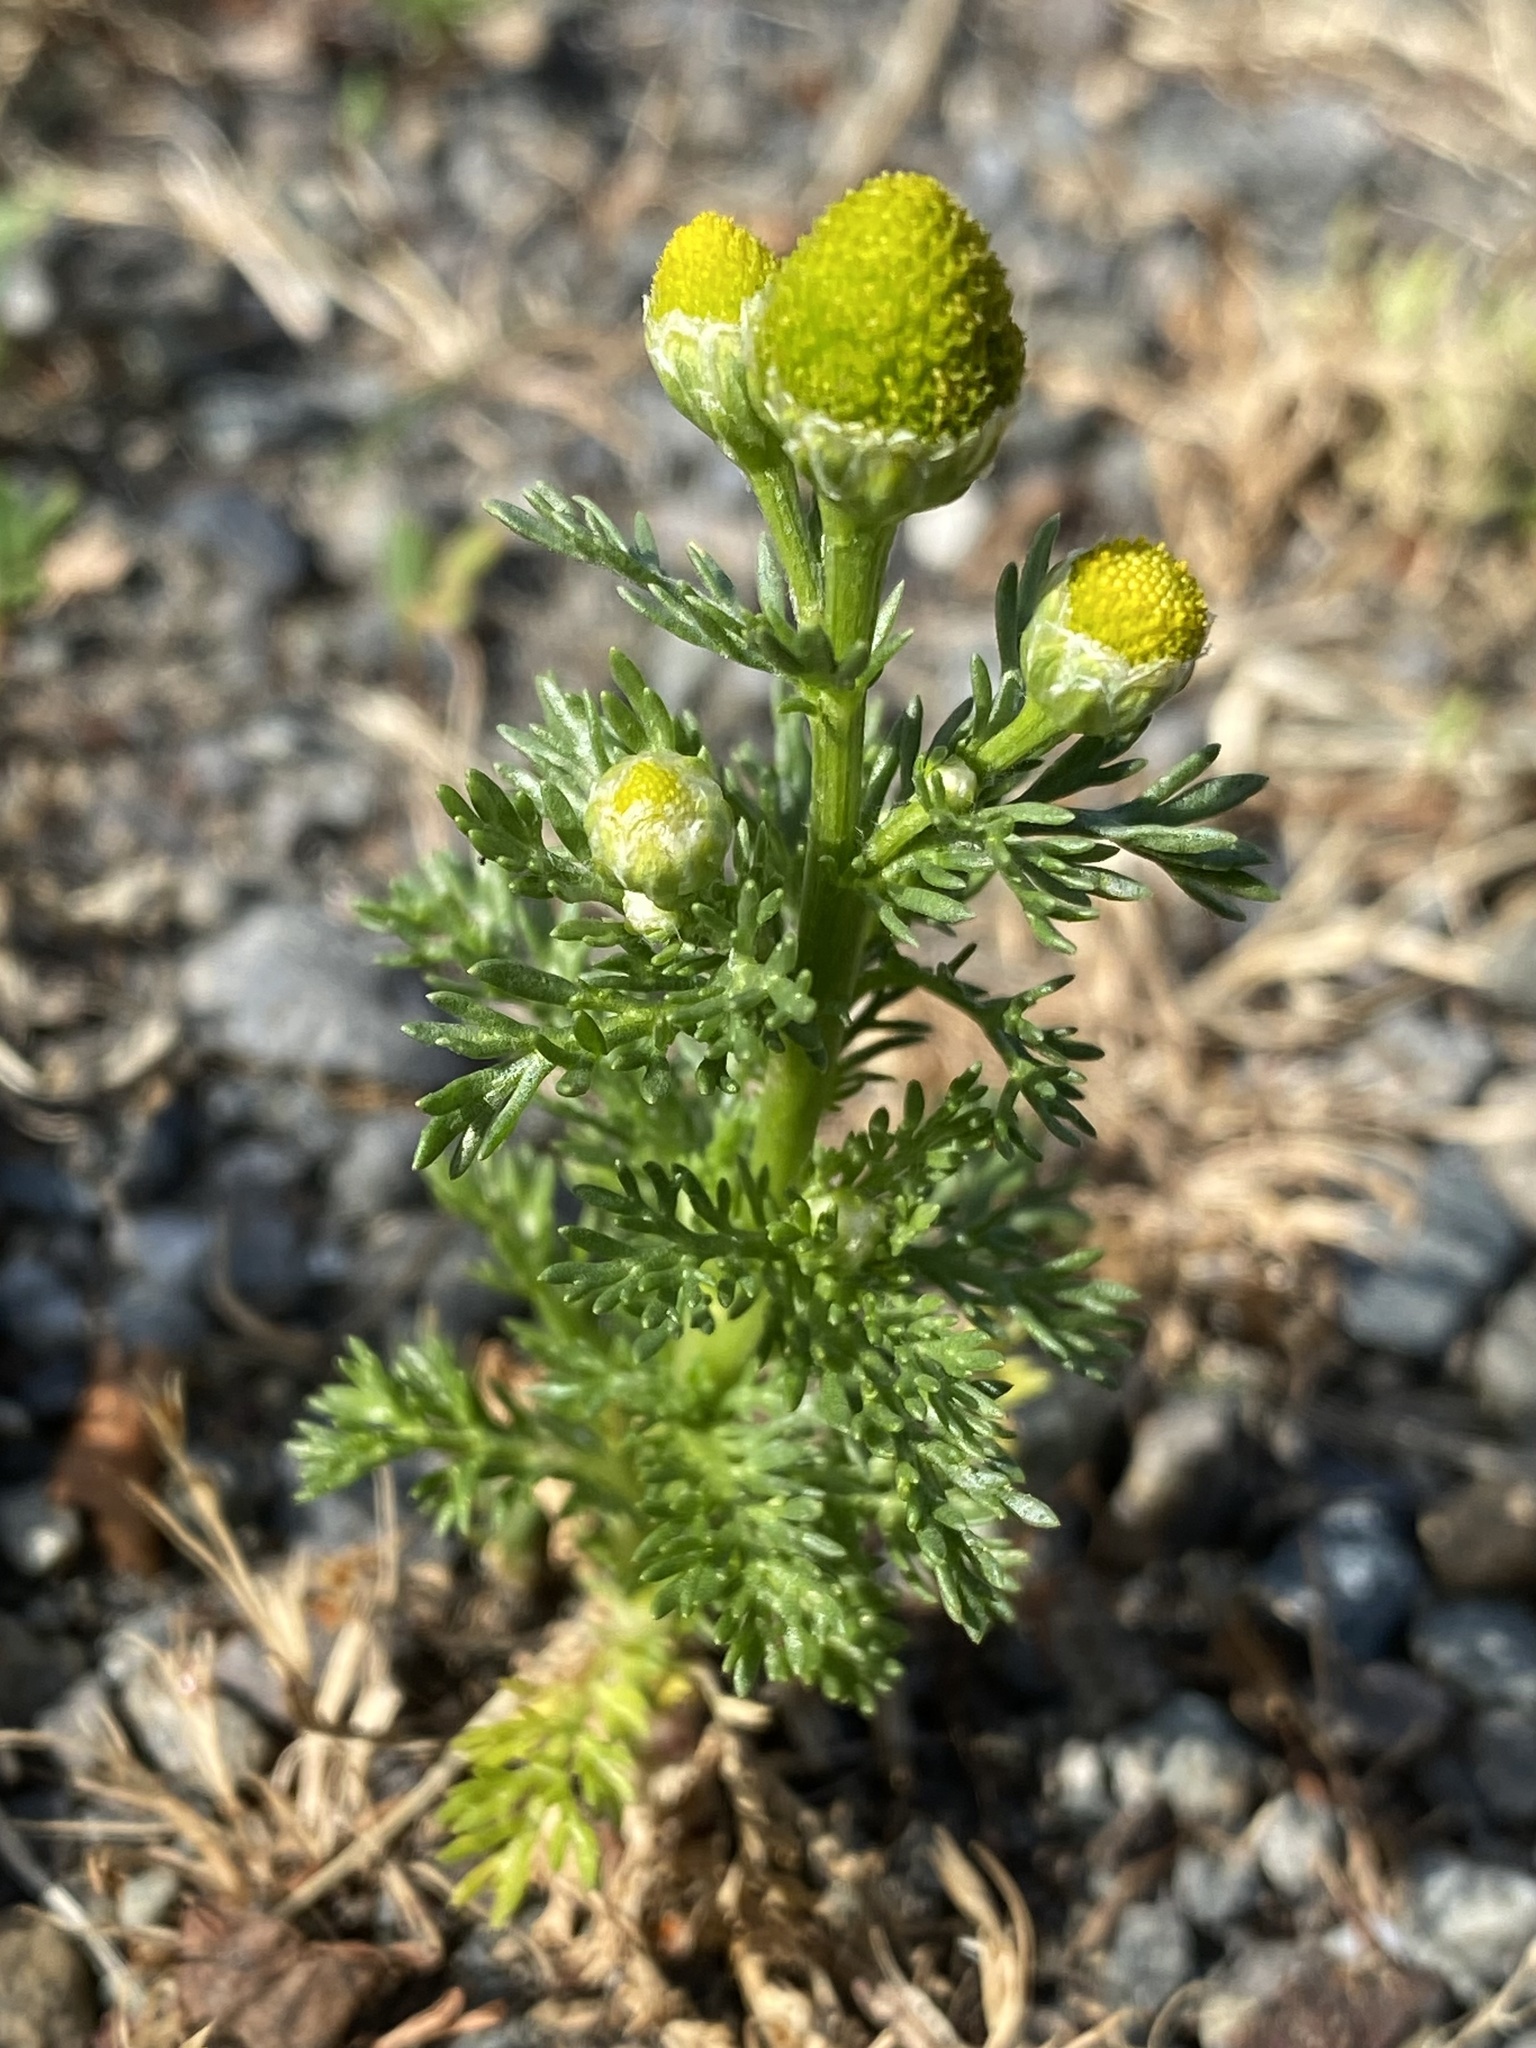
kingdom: Plantae
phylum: Tracheophyta
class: Magnoliopsida
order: Asterales
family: Asteraceae
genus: Matricaria
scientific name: Matricaria discoidea
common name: Disc mayweed
